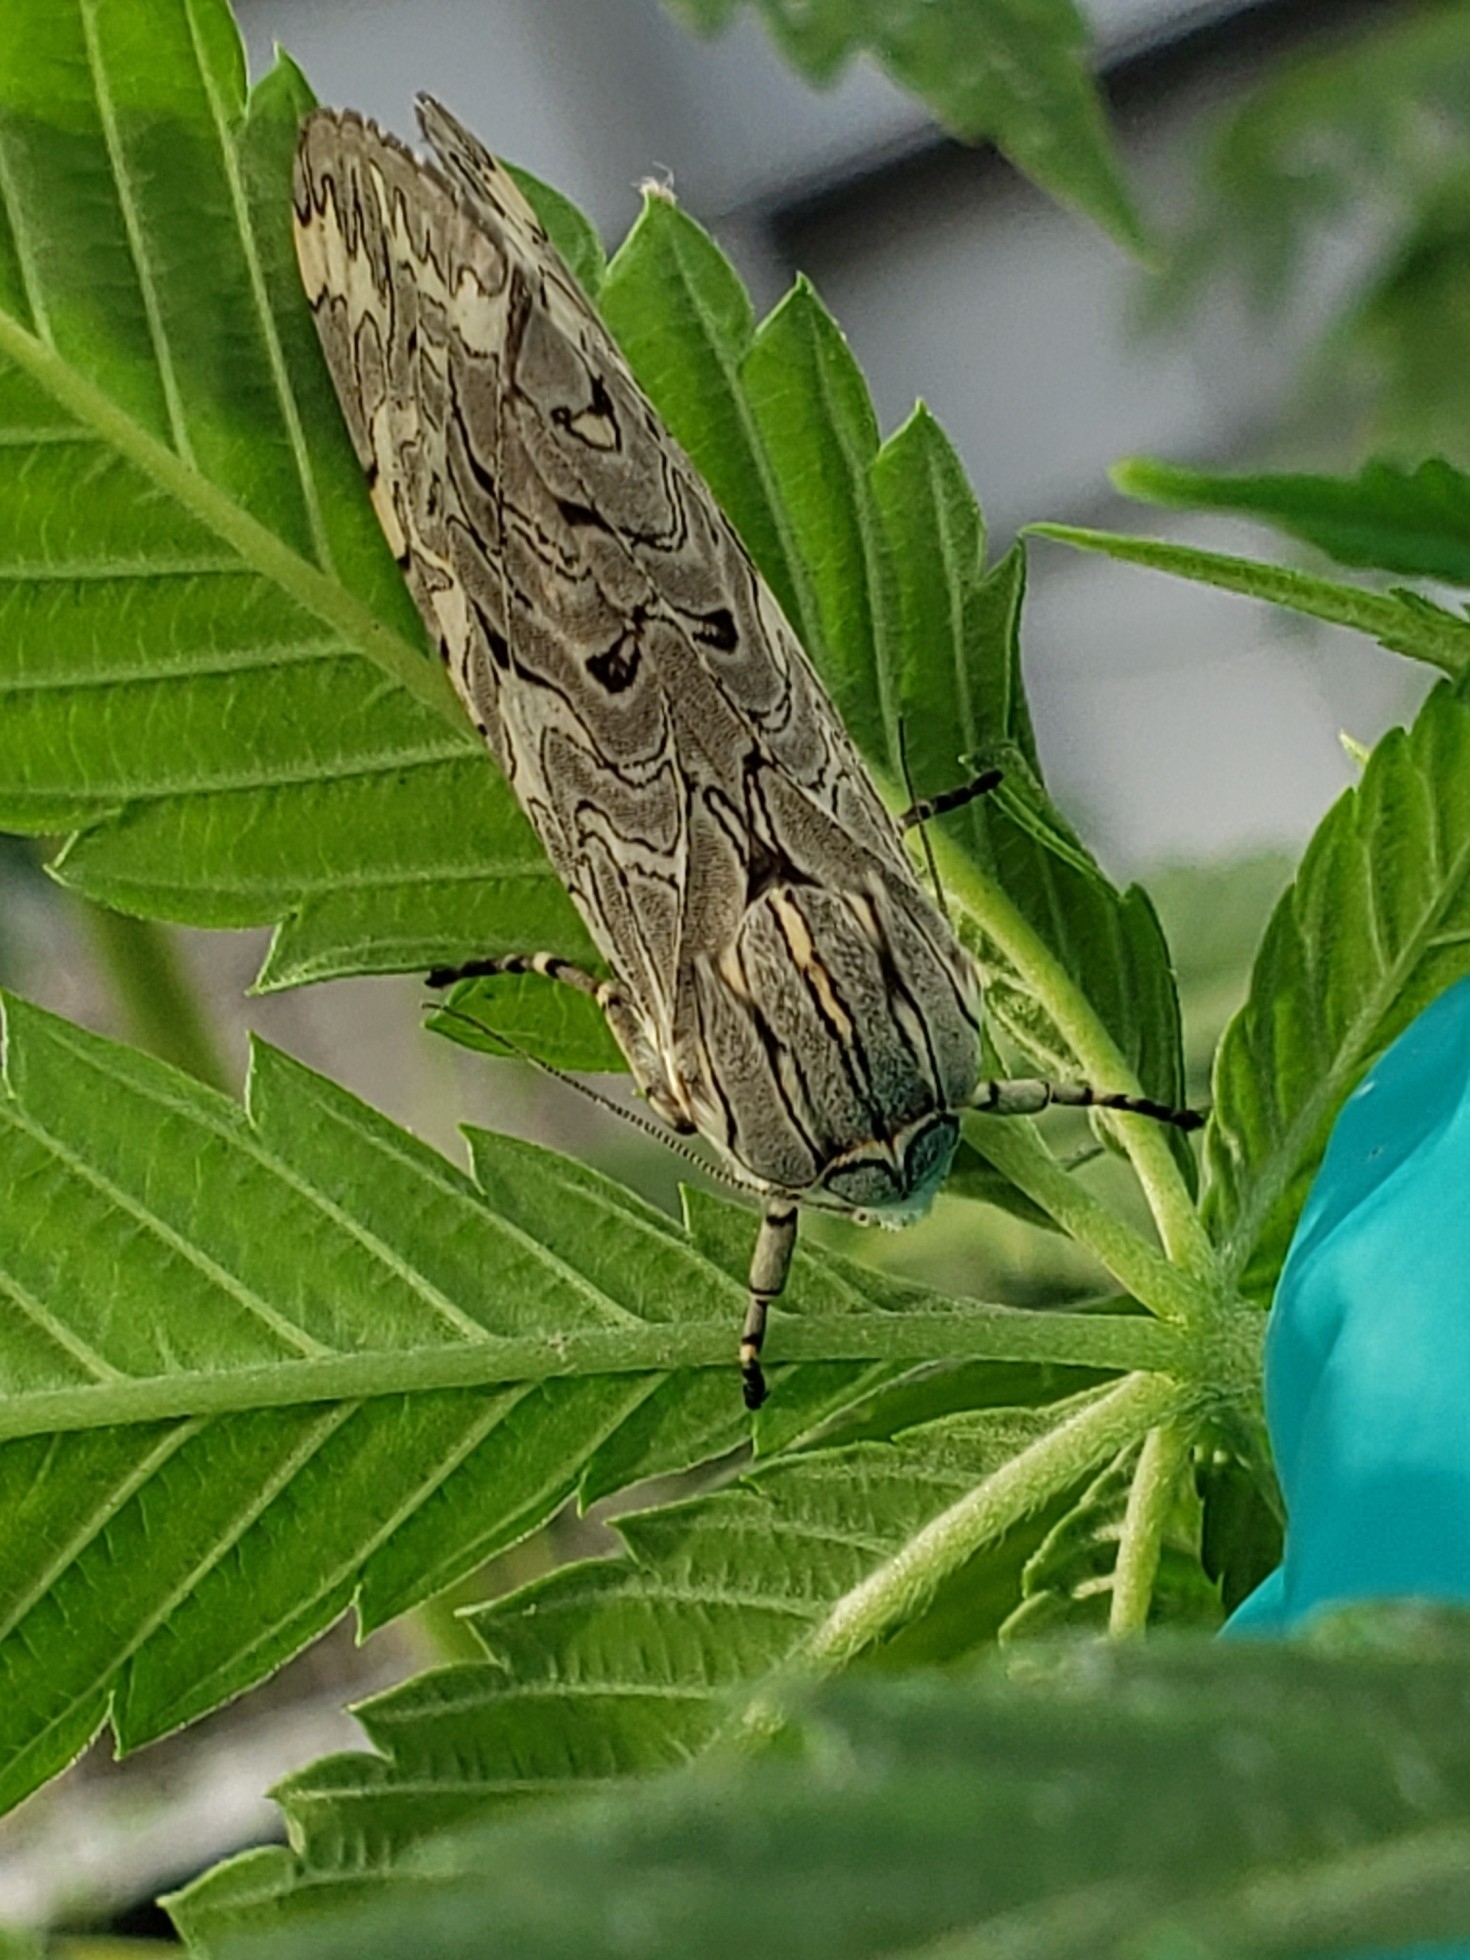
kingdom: Animalia
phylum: Arthropoda
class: Insecta
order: Lepidoptera
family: Erebidae
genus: Arachnis
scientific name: Arachnis picta
